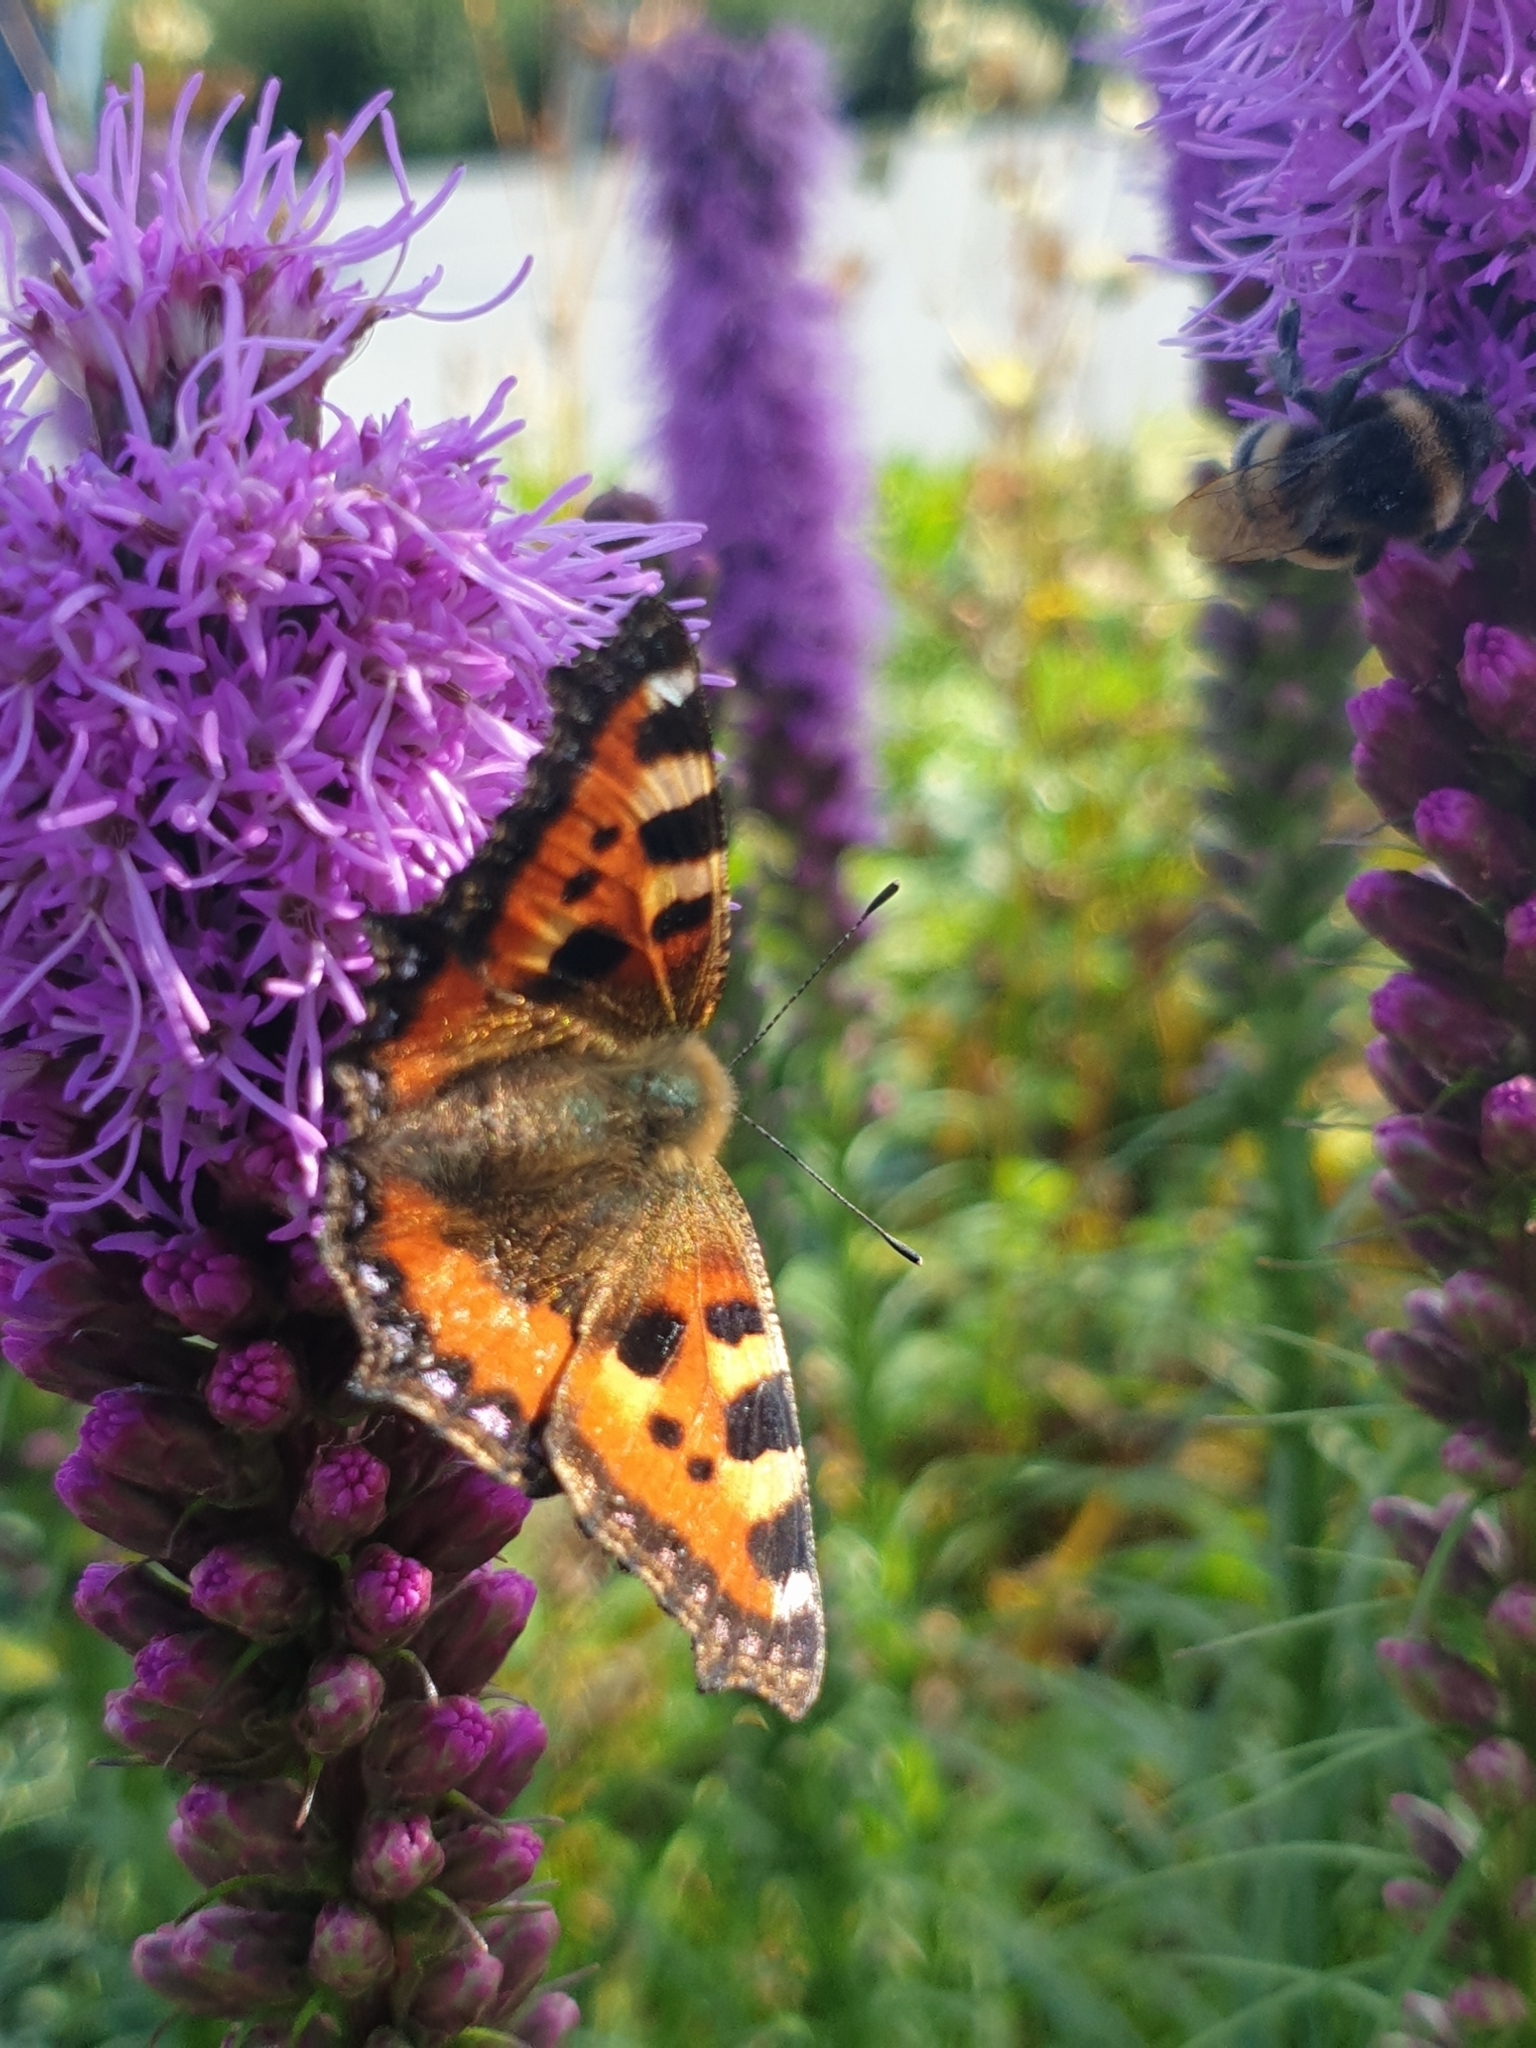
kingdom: Animalia
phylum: Arthropoda
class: Insecta
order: Lepidoptera
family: Nymphalidae
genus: Aglais
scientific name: Aglais urticae
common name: Small tortoiseshell
